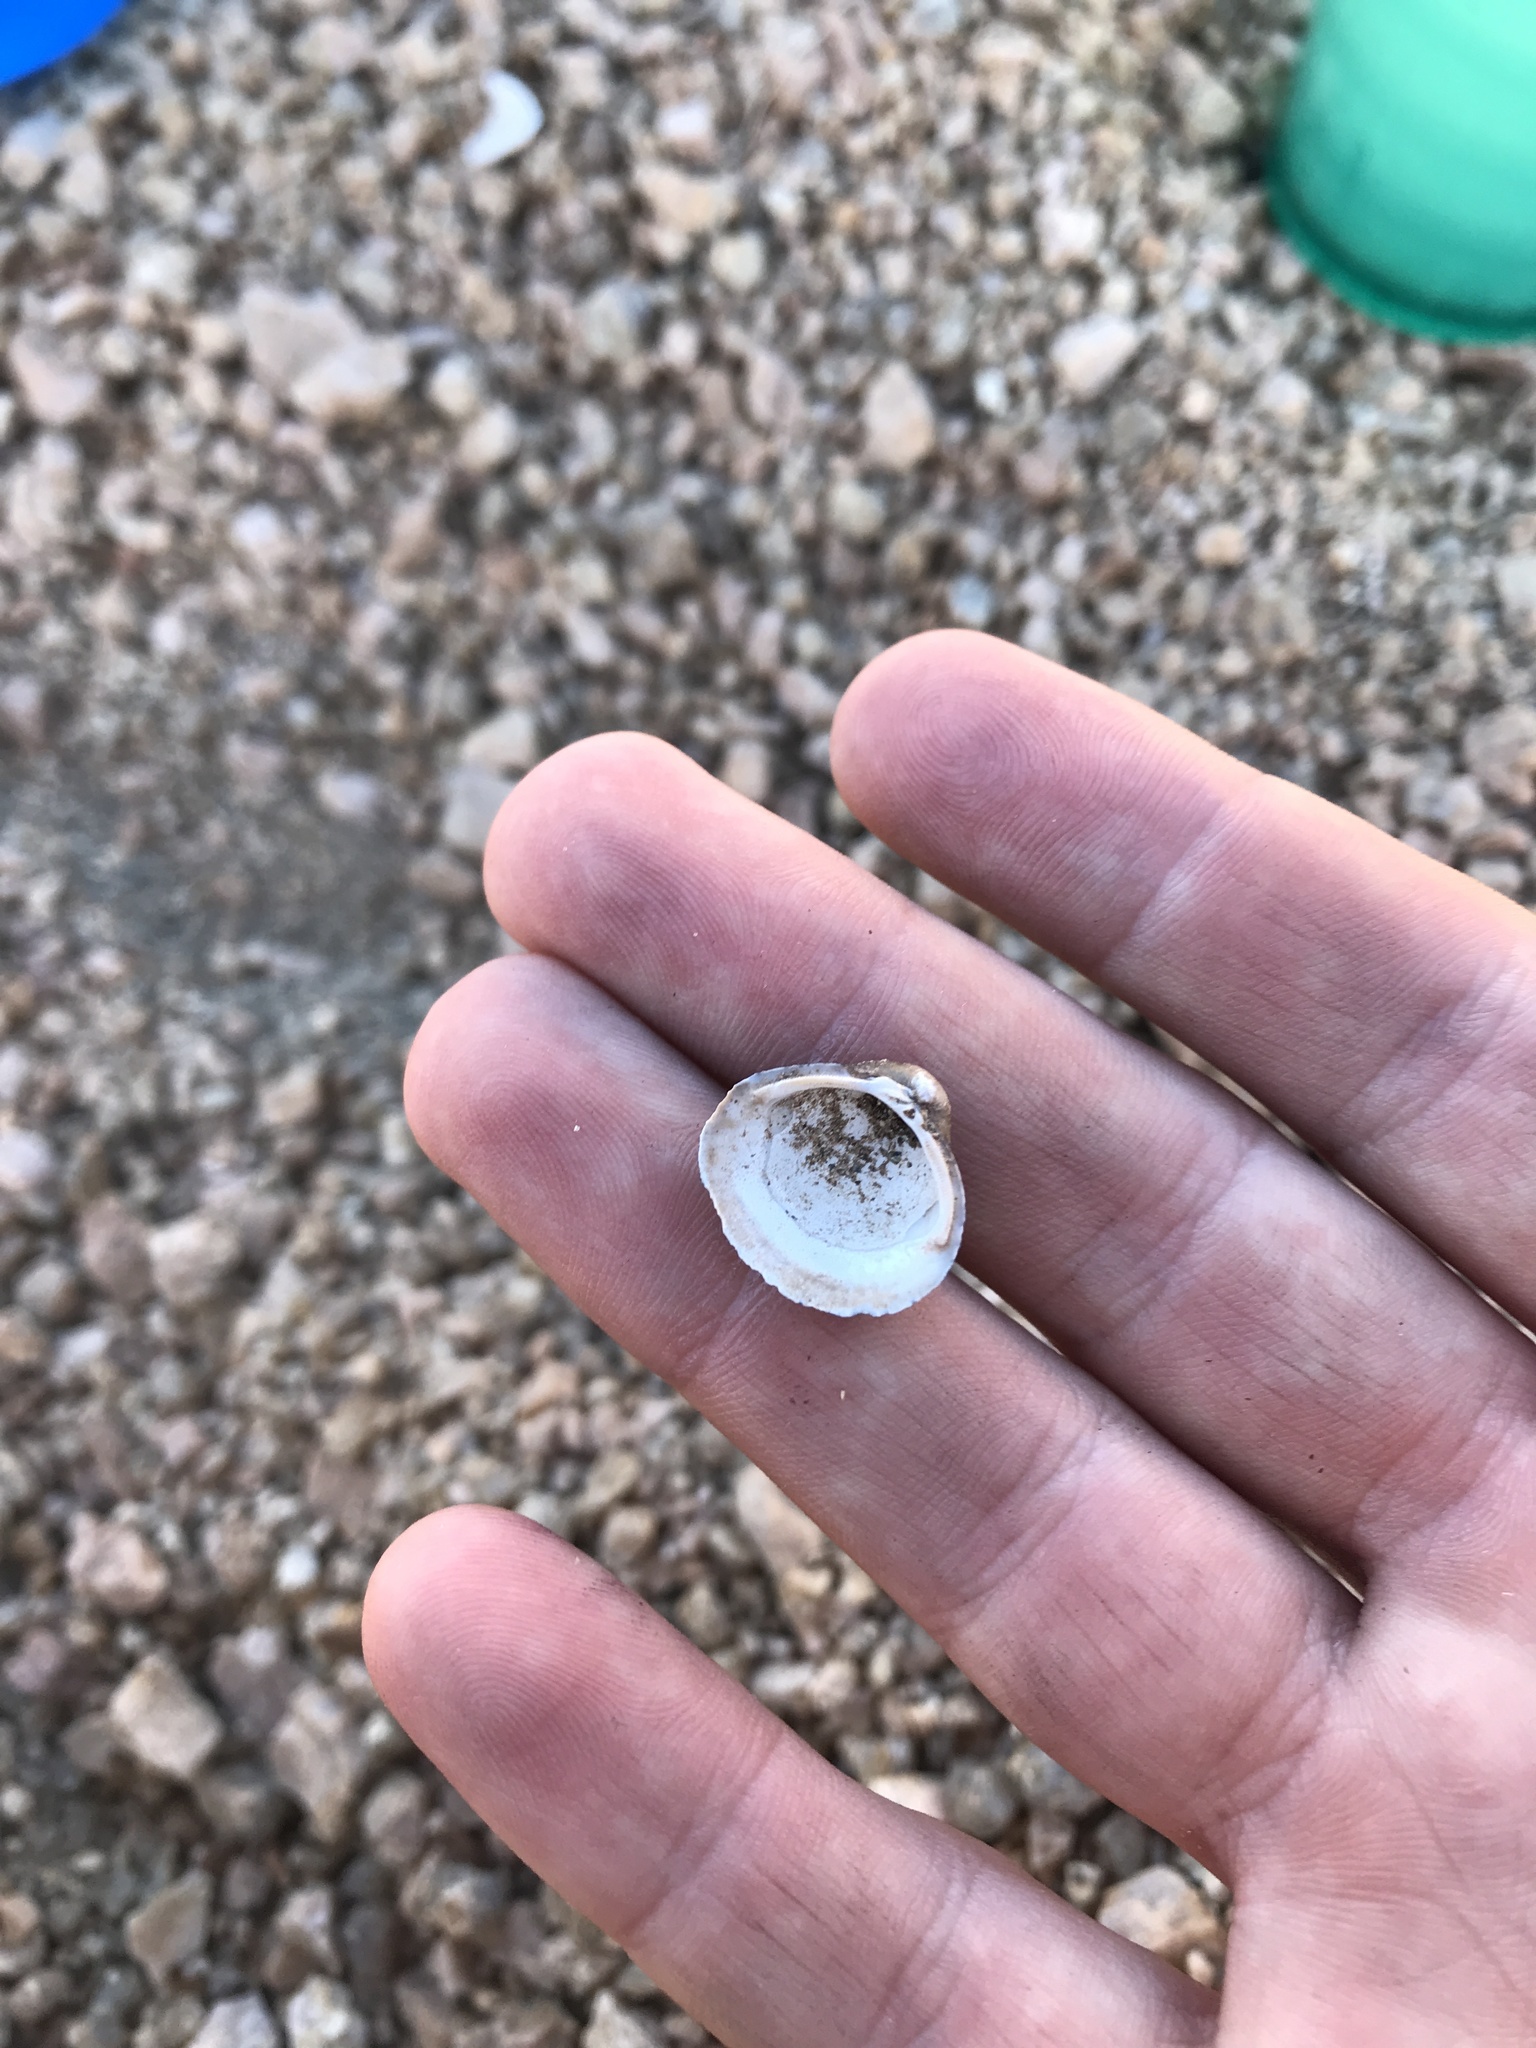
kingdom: Animalia
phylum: Mollusca
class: Bivalvia
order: Venerida
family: Cyrenidae
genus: Corbicula
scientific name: Corbicula fluminea
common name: Asian clam
